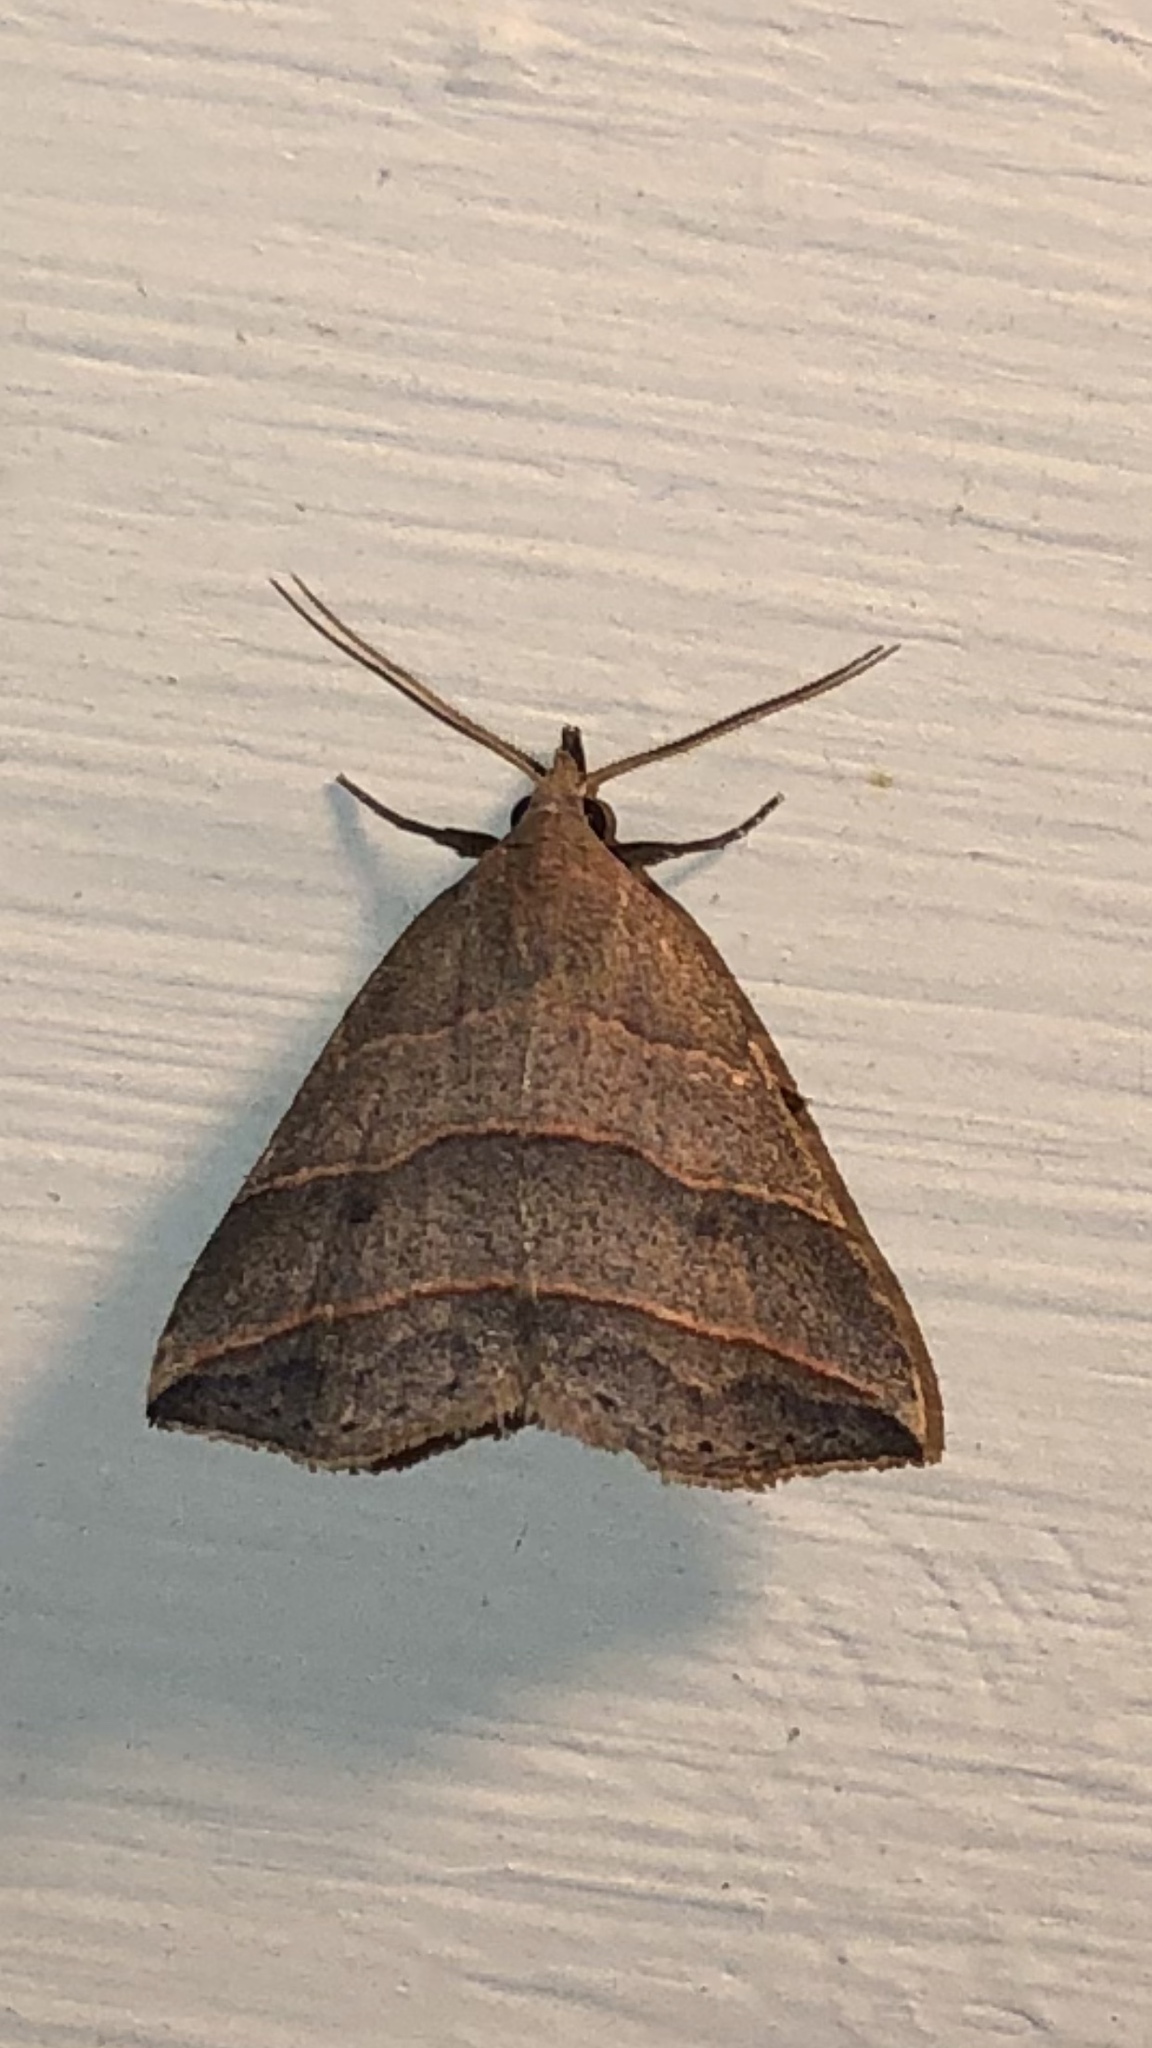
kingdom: Animalia
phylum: Arthropoda
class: Insecta
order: Lepidoptera
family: Erebidae
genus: Colobochyla
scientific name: Colobochyla interpuncta
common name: Yellow-lined owlet
